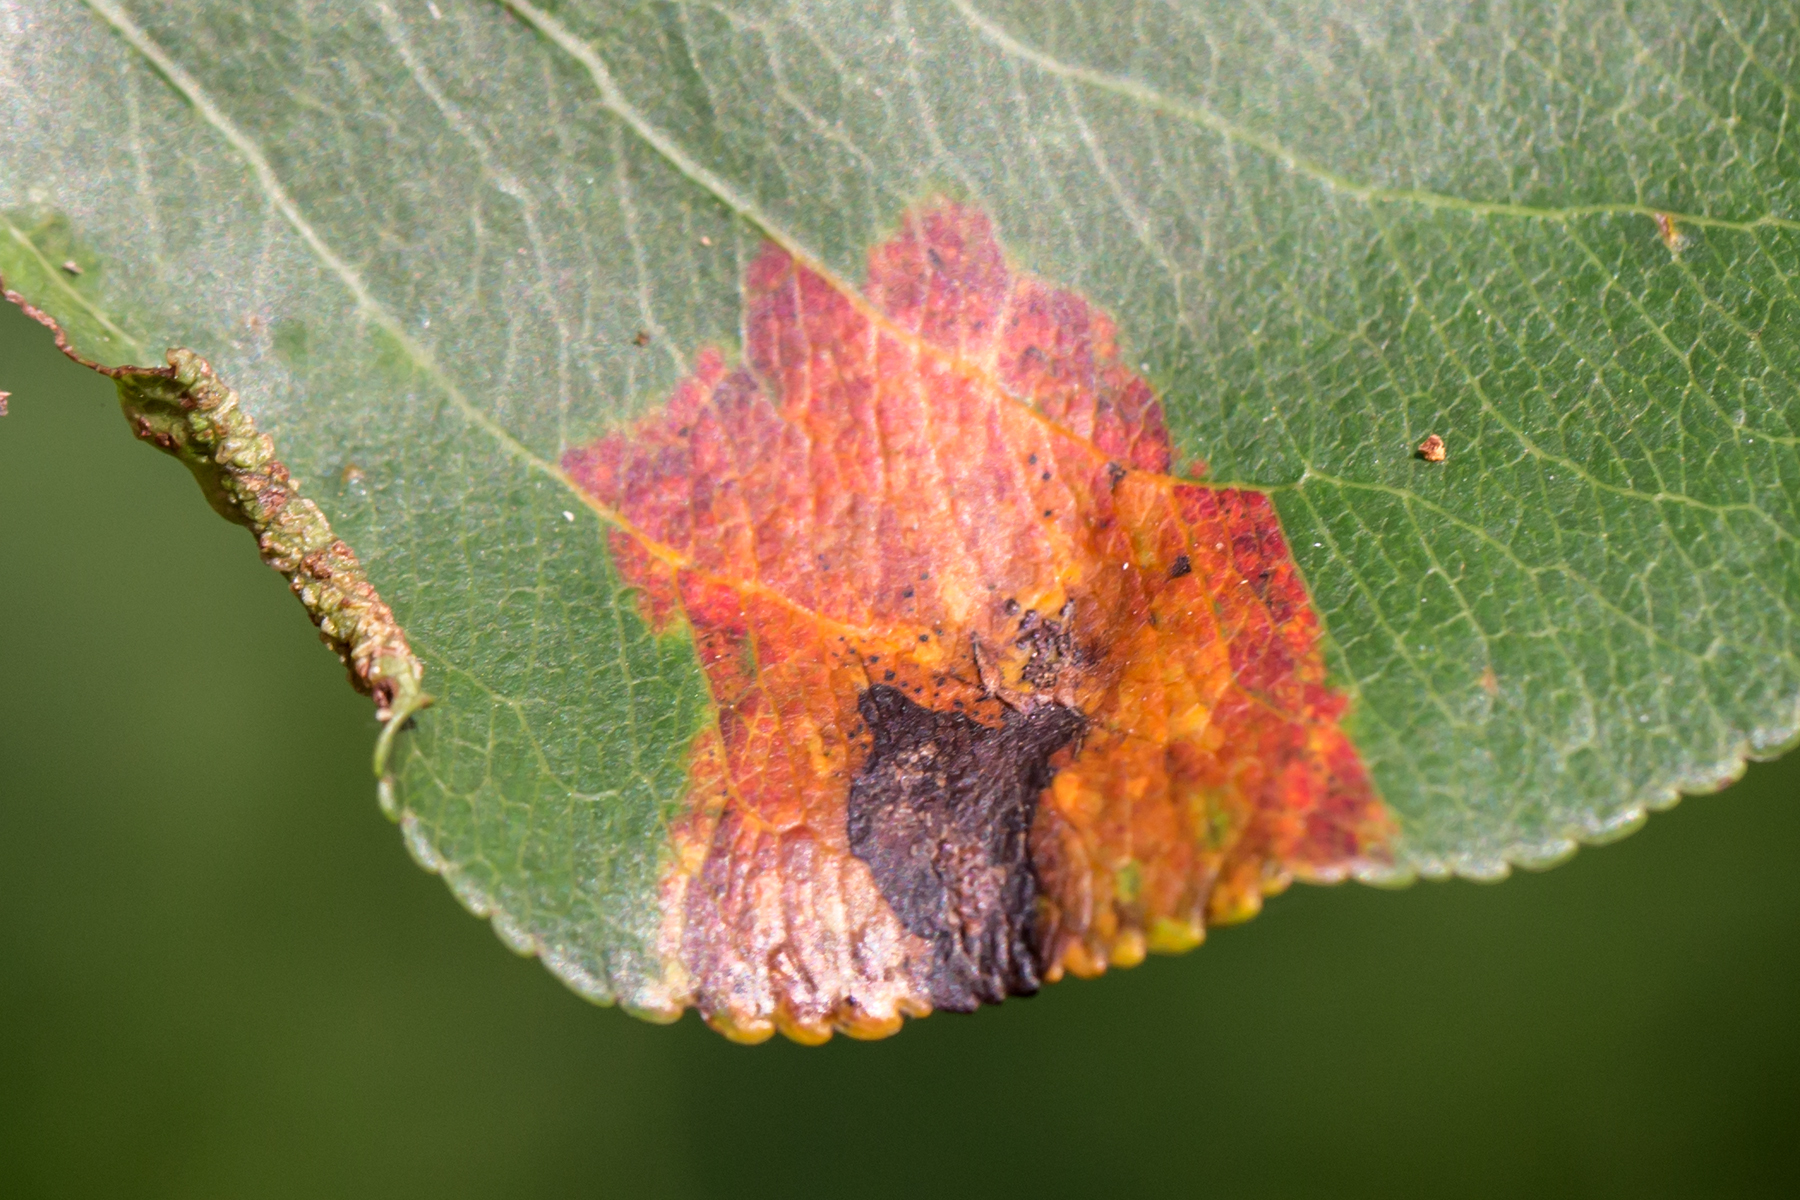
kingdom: Fungi
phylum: Basidiomycota
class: Pucciniomycetes
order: Pucciniales
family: Gymnosporangiaceae
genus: Gymnosporangium
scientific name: Gymnosporangium sabinae
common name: Pear trellis rust fungus
